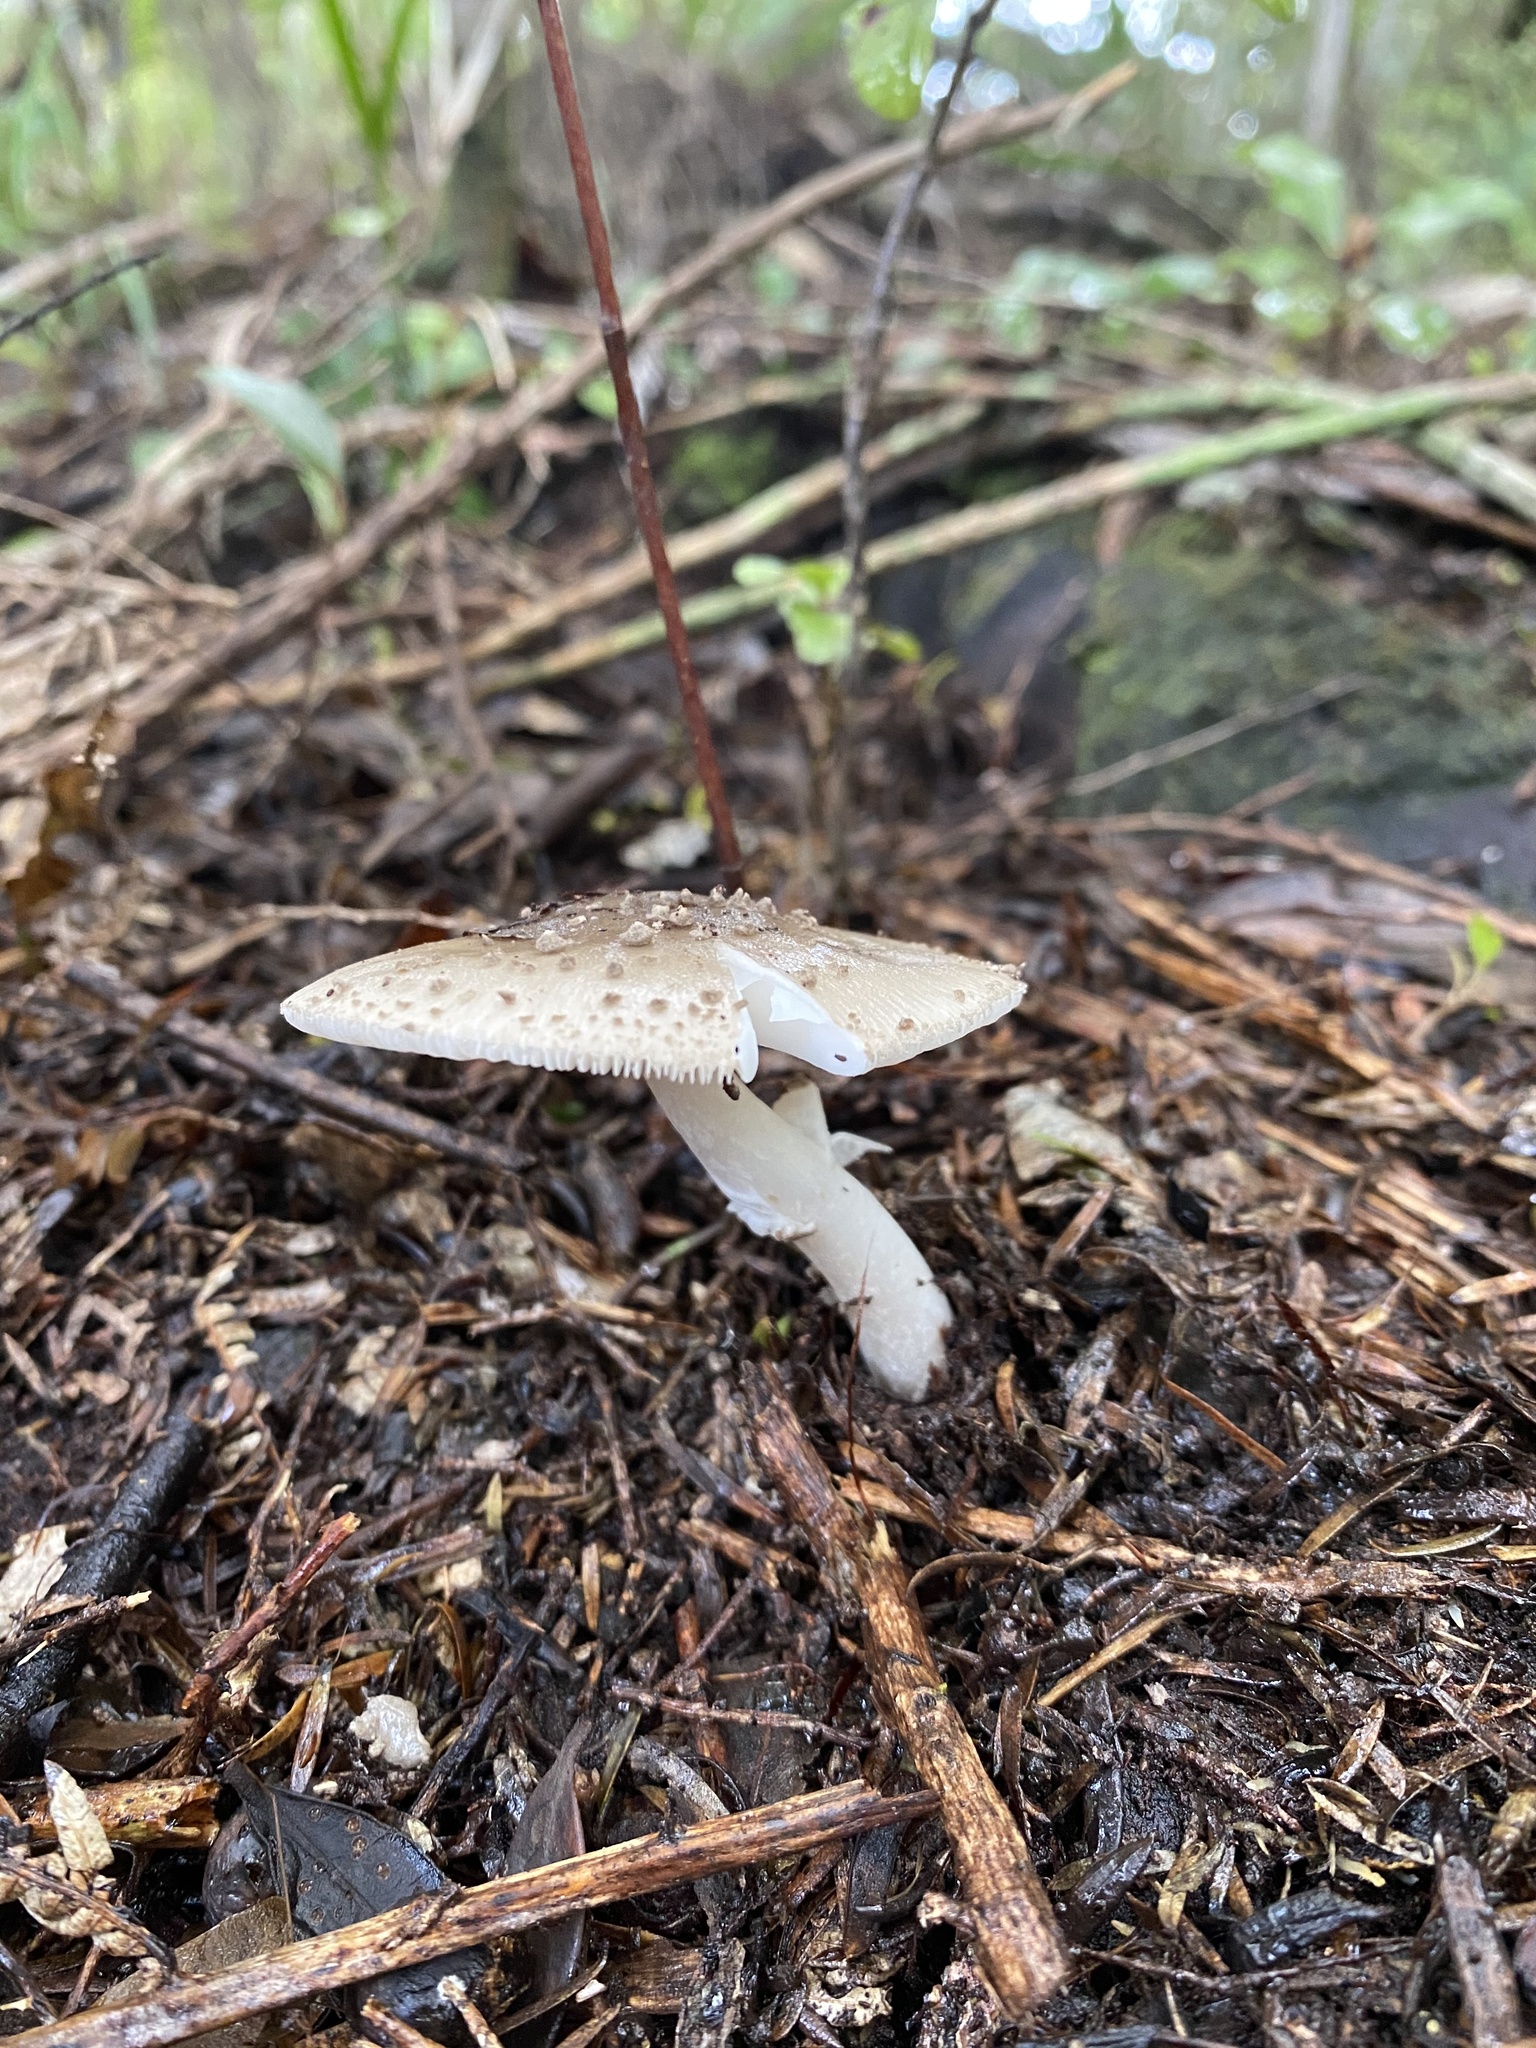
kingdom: Fungi
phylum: Basidiomycota
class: Agaricomycetes
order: Agaricales
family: Amanitaceae
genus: Amanita
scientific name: Amanita australis
